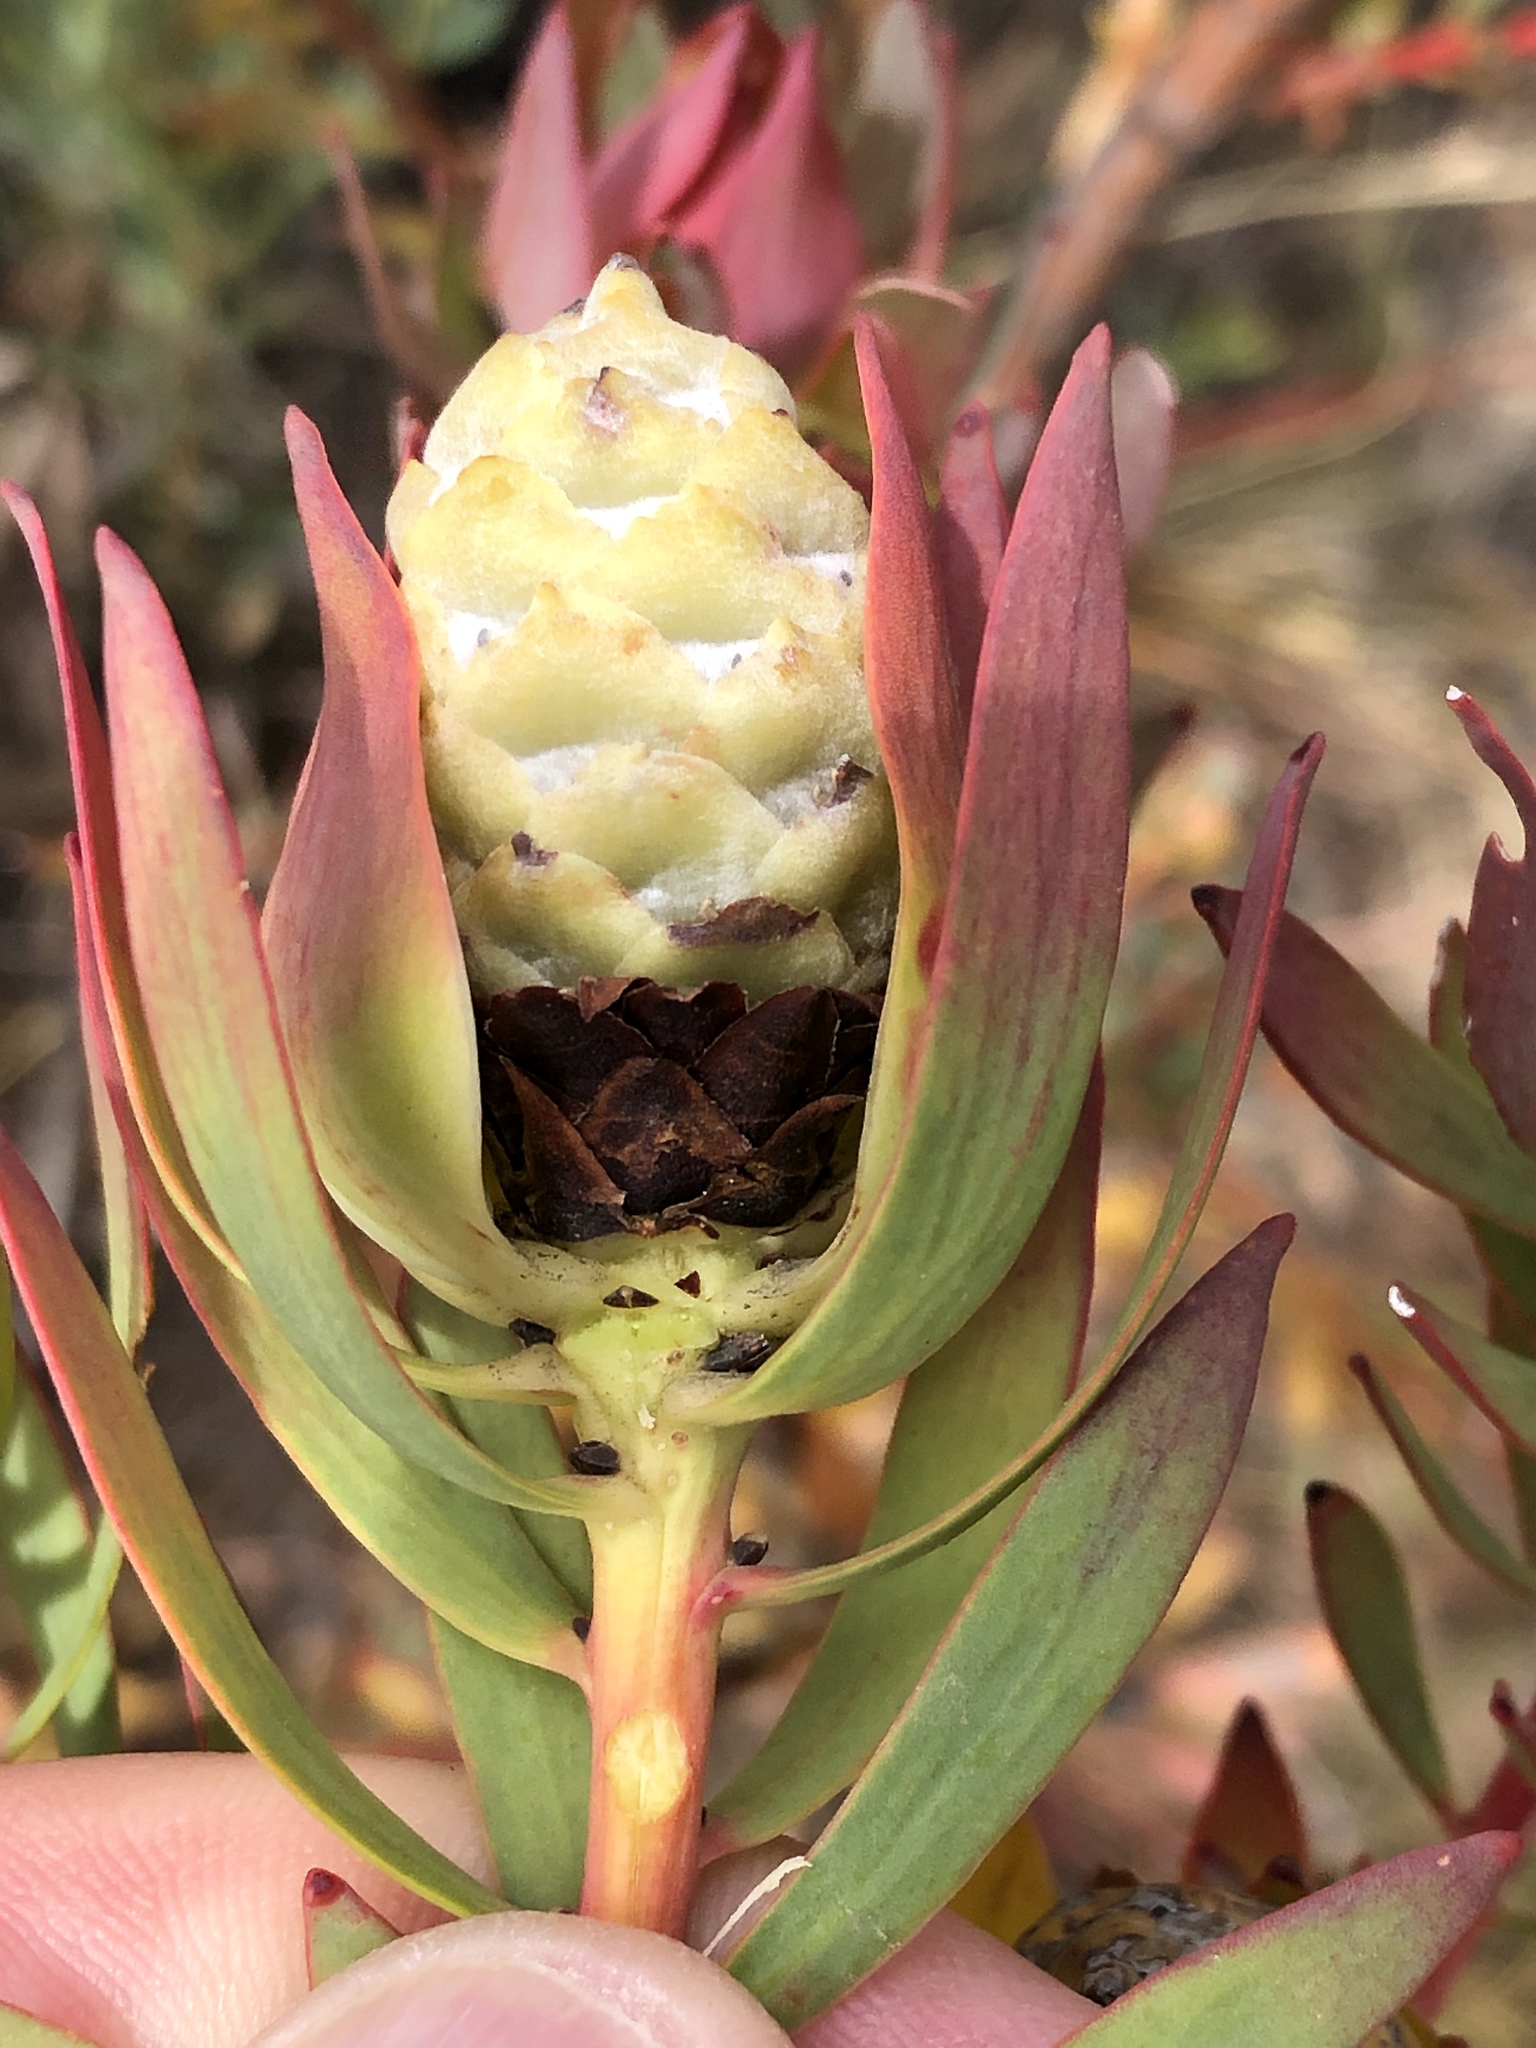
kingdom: Plantae
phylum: Tracheophyta
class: Magnoliopsida
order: Proteales
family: Proteaceae
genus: Leucadendron
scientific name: Leucadendron salignum
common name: Common sunshine conebush
